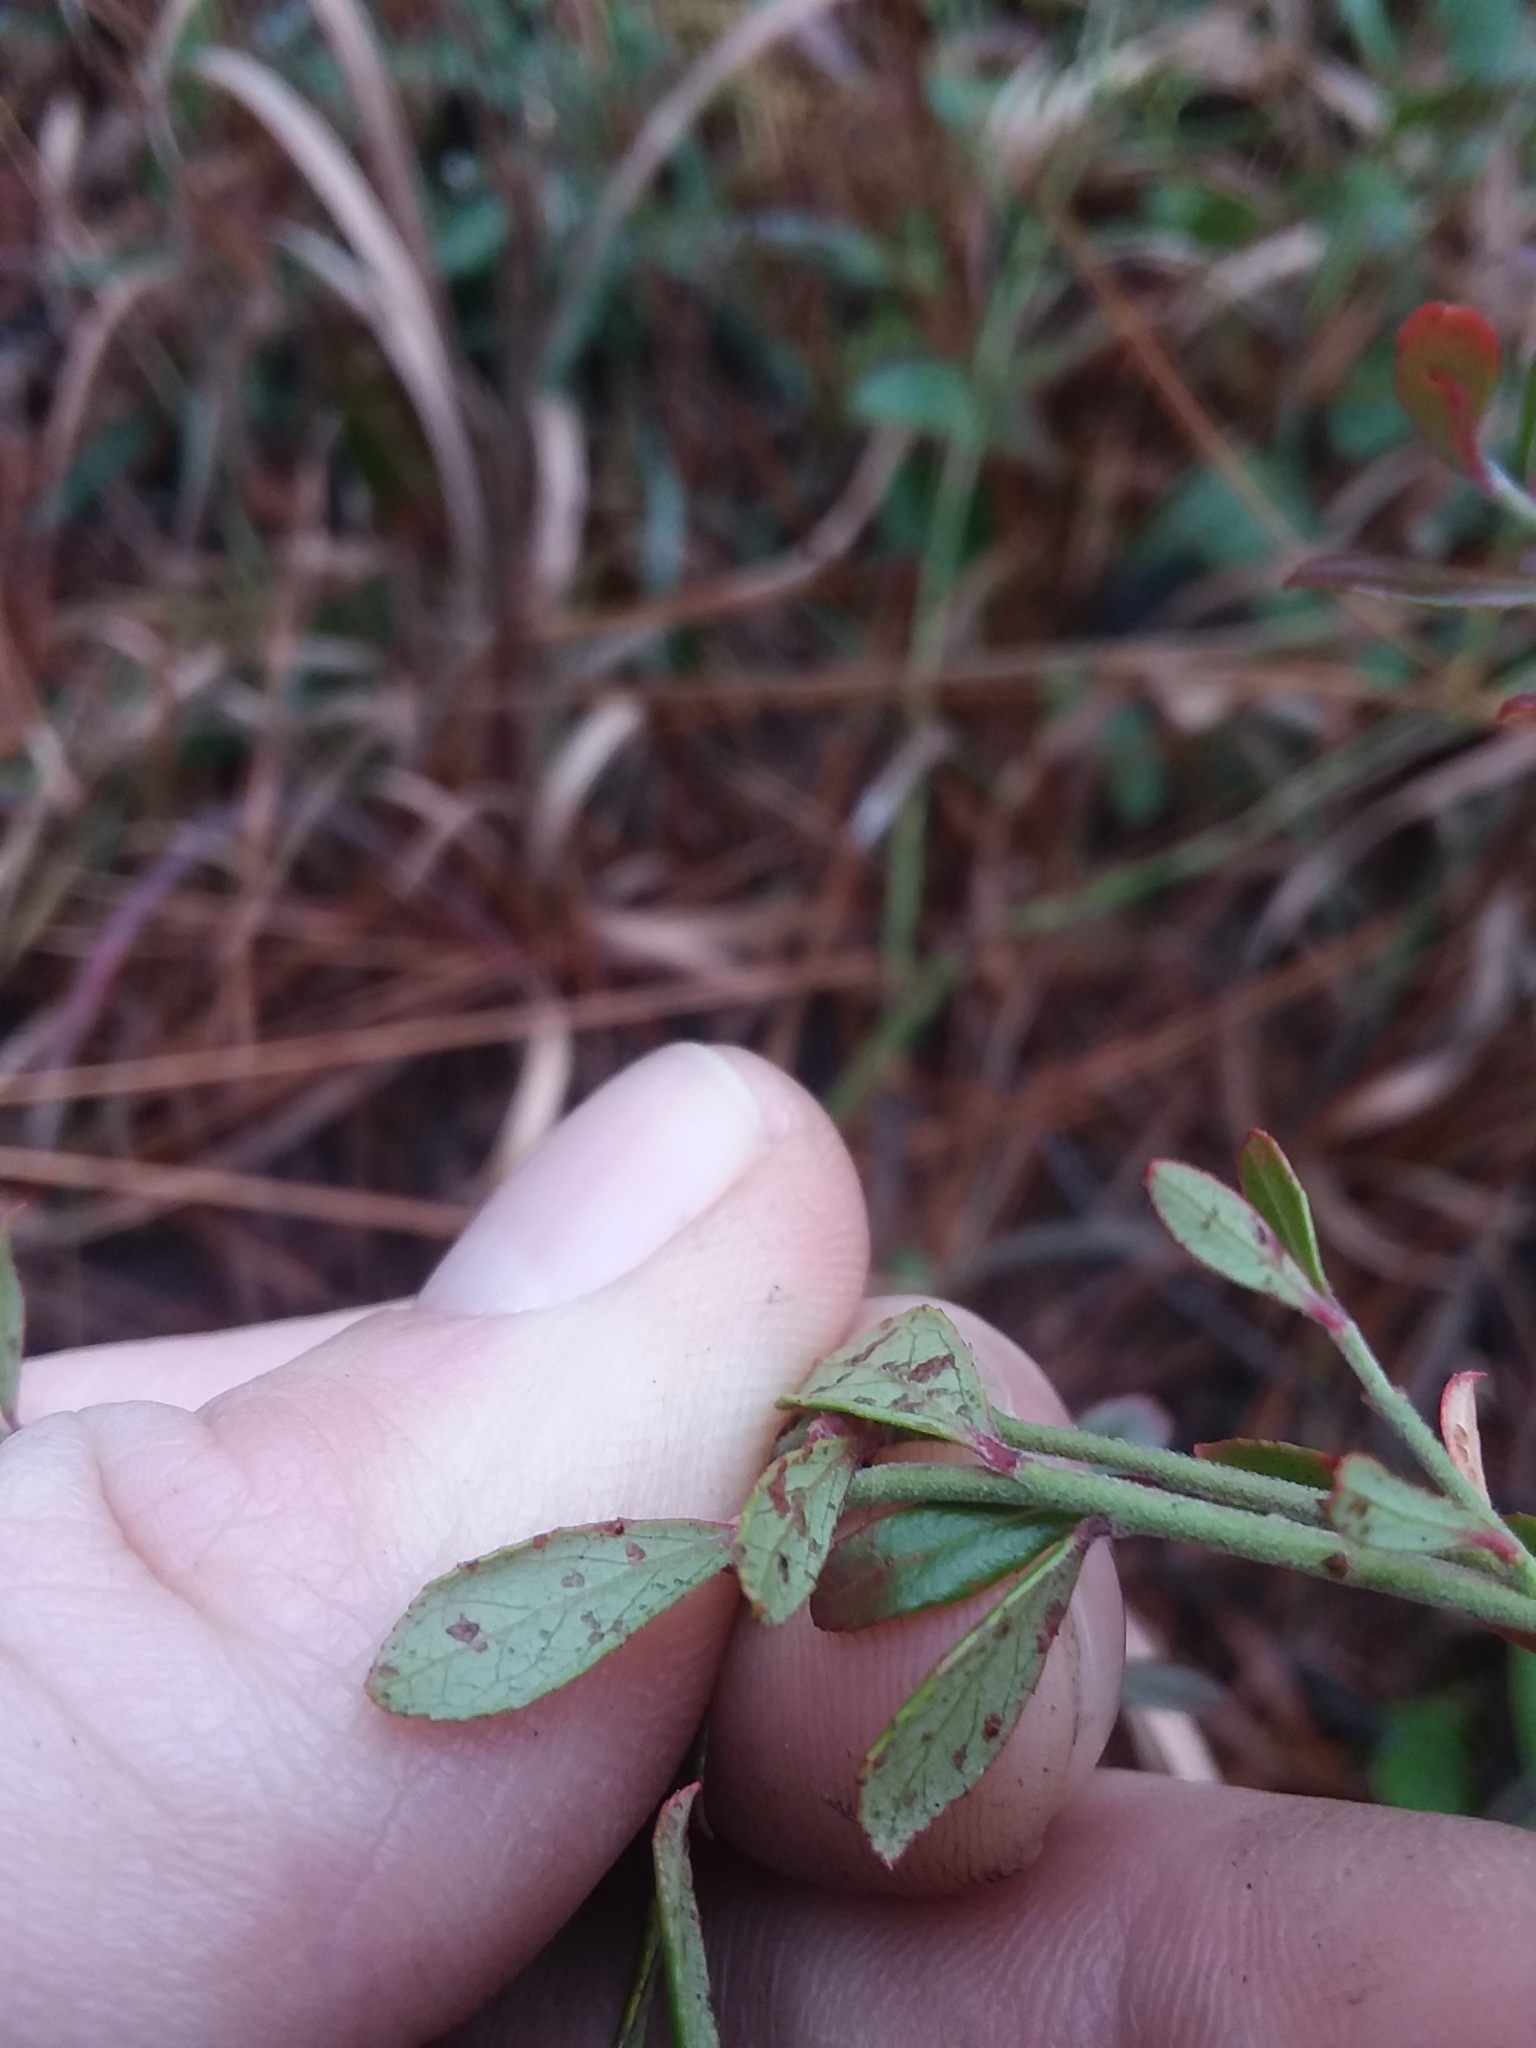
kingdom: Plantae
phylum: Tracheophyta
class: Magnoliopsida
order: Ericales
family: Ericaceae
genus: Vaccinium
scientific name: Vaccinium darrowii
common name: Darrow's blueberry
